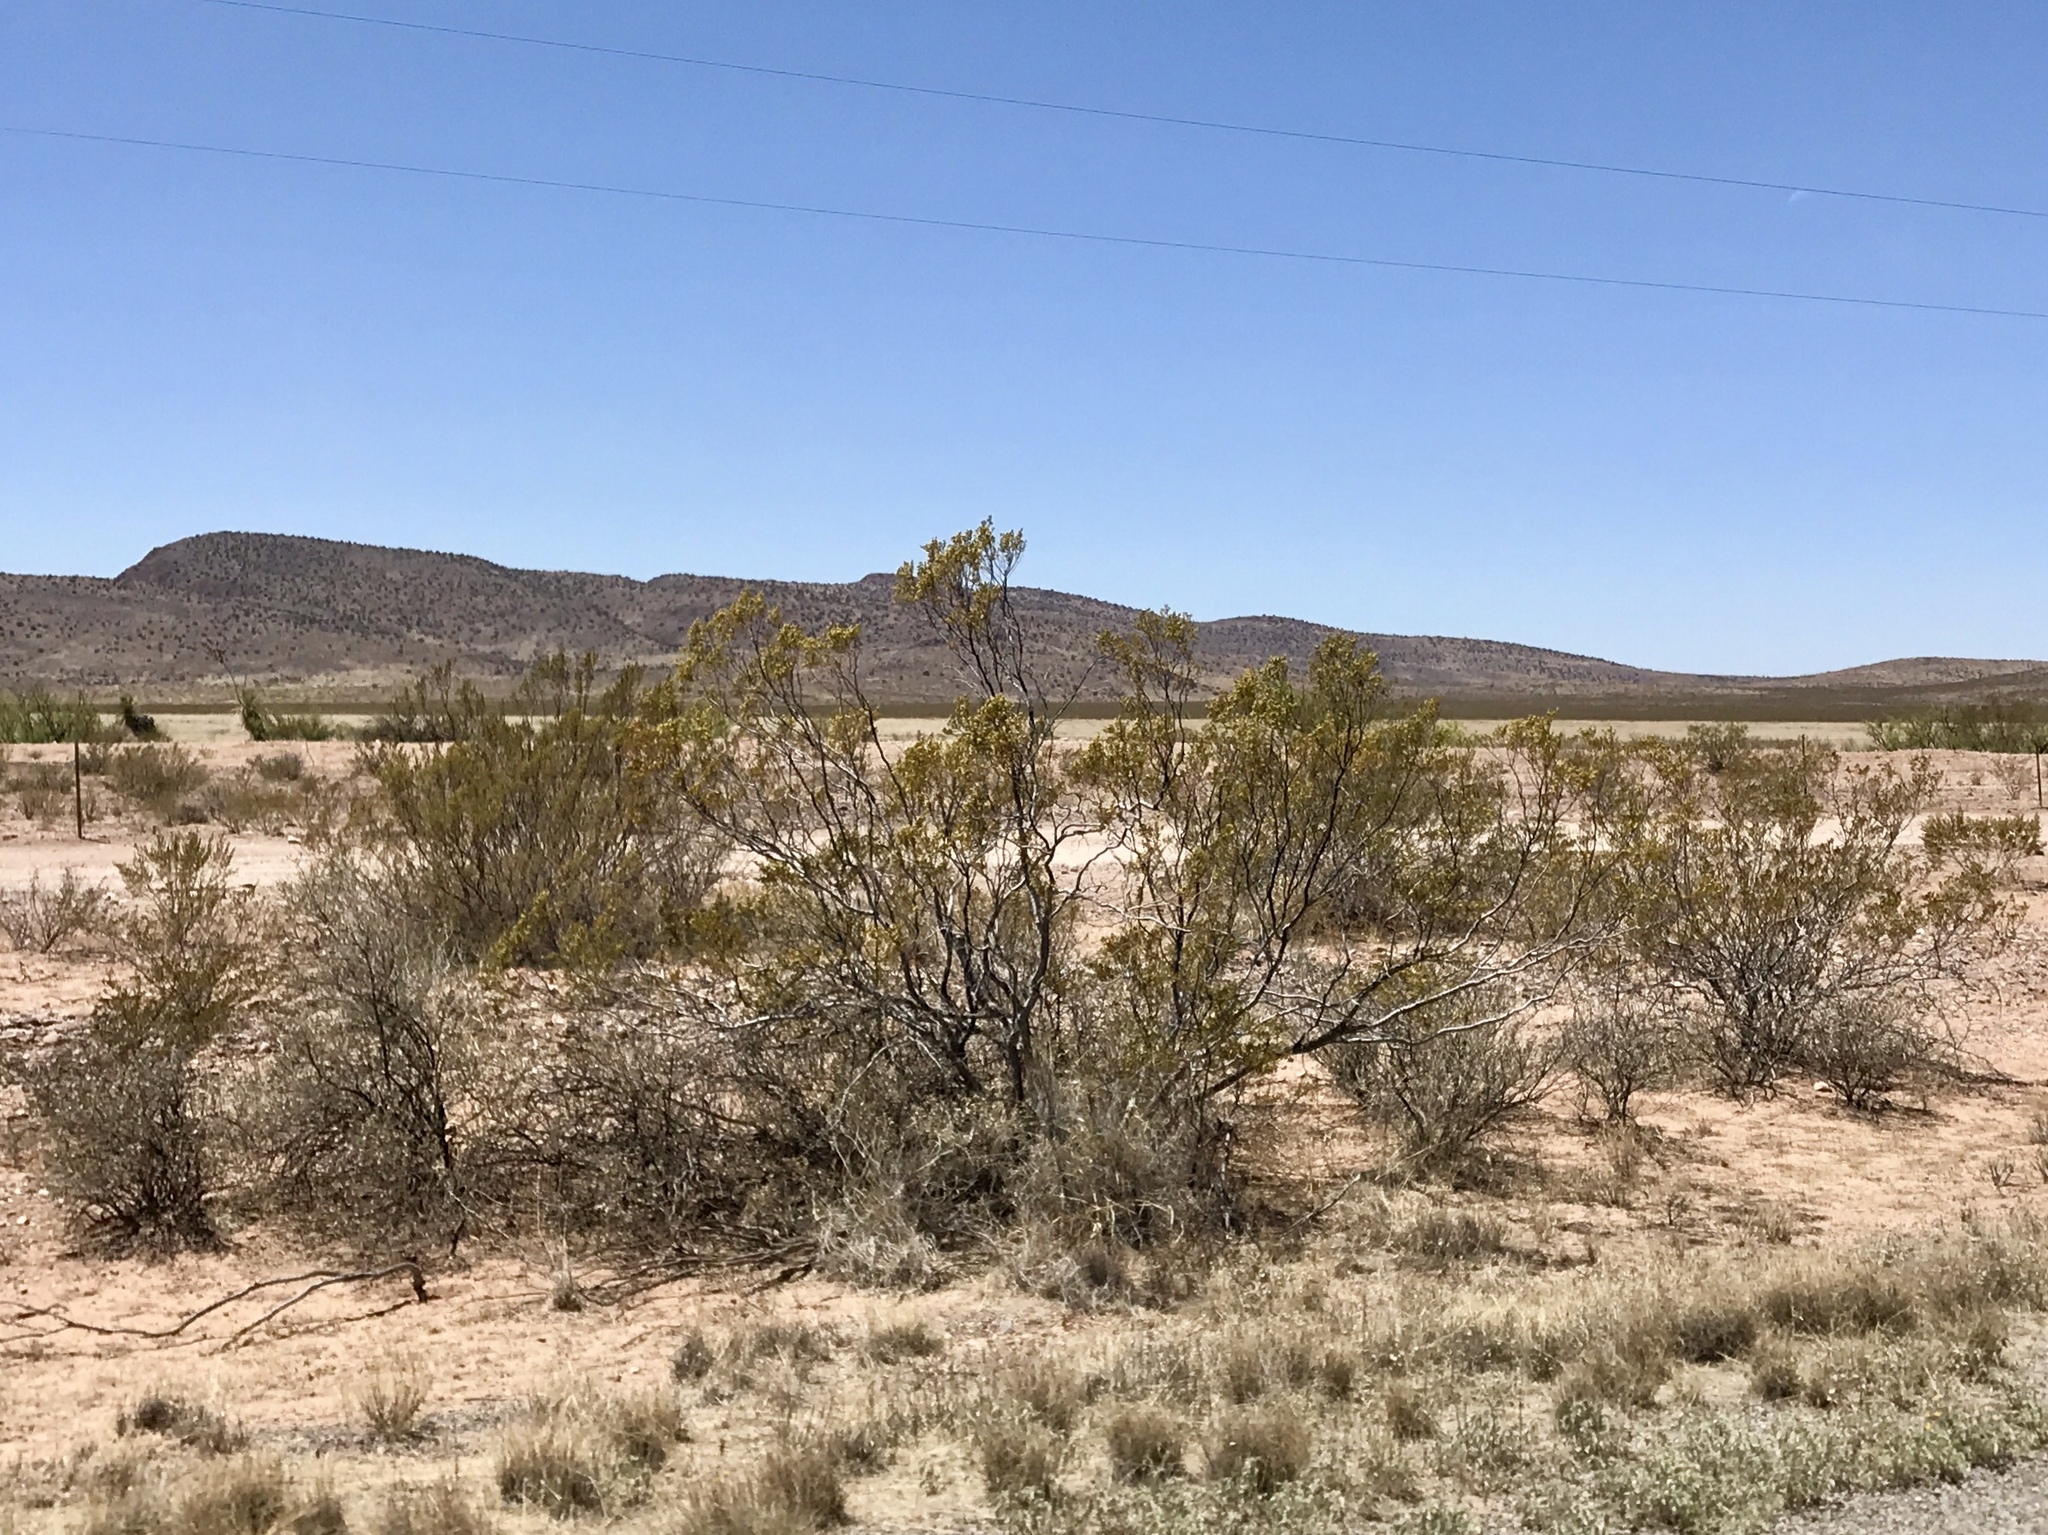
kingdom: Plantae
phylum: Tracheophyta
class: Magnoliopsida
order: Zygophyllales
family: Zygophyllaceae
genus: Larrea
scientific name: Larrea tridentata
